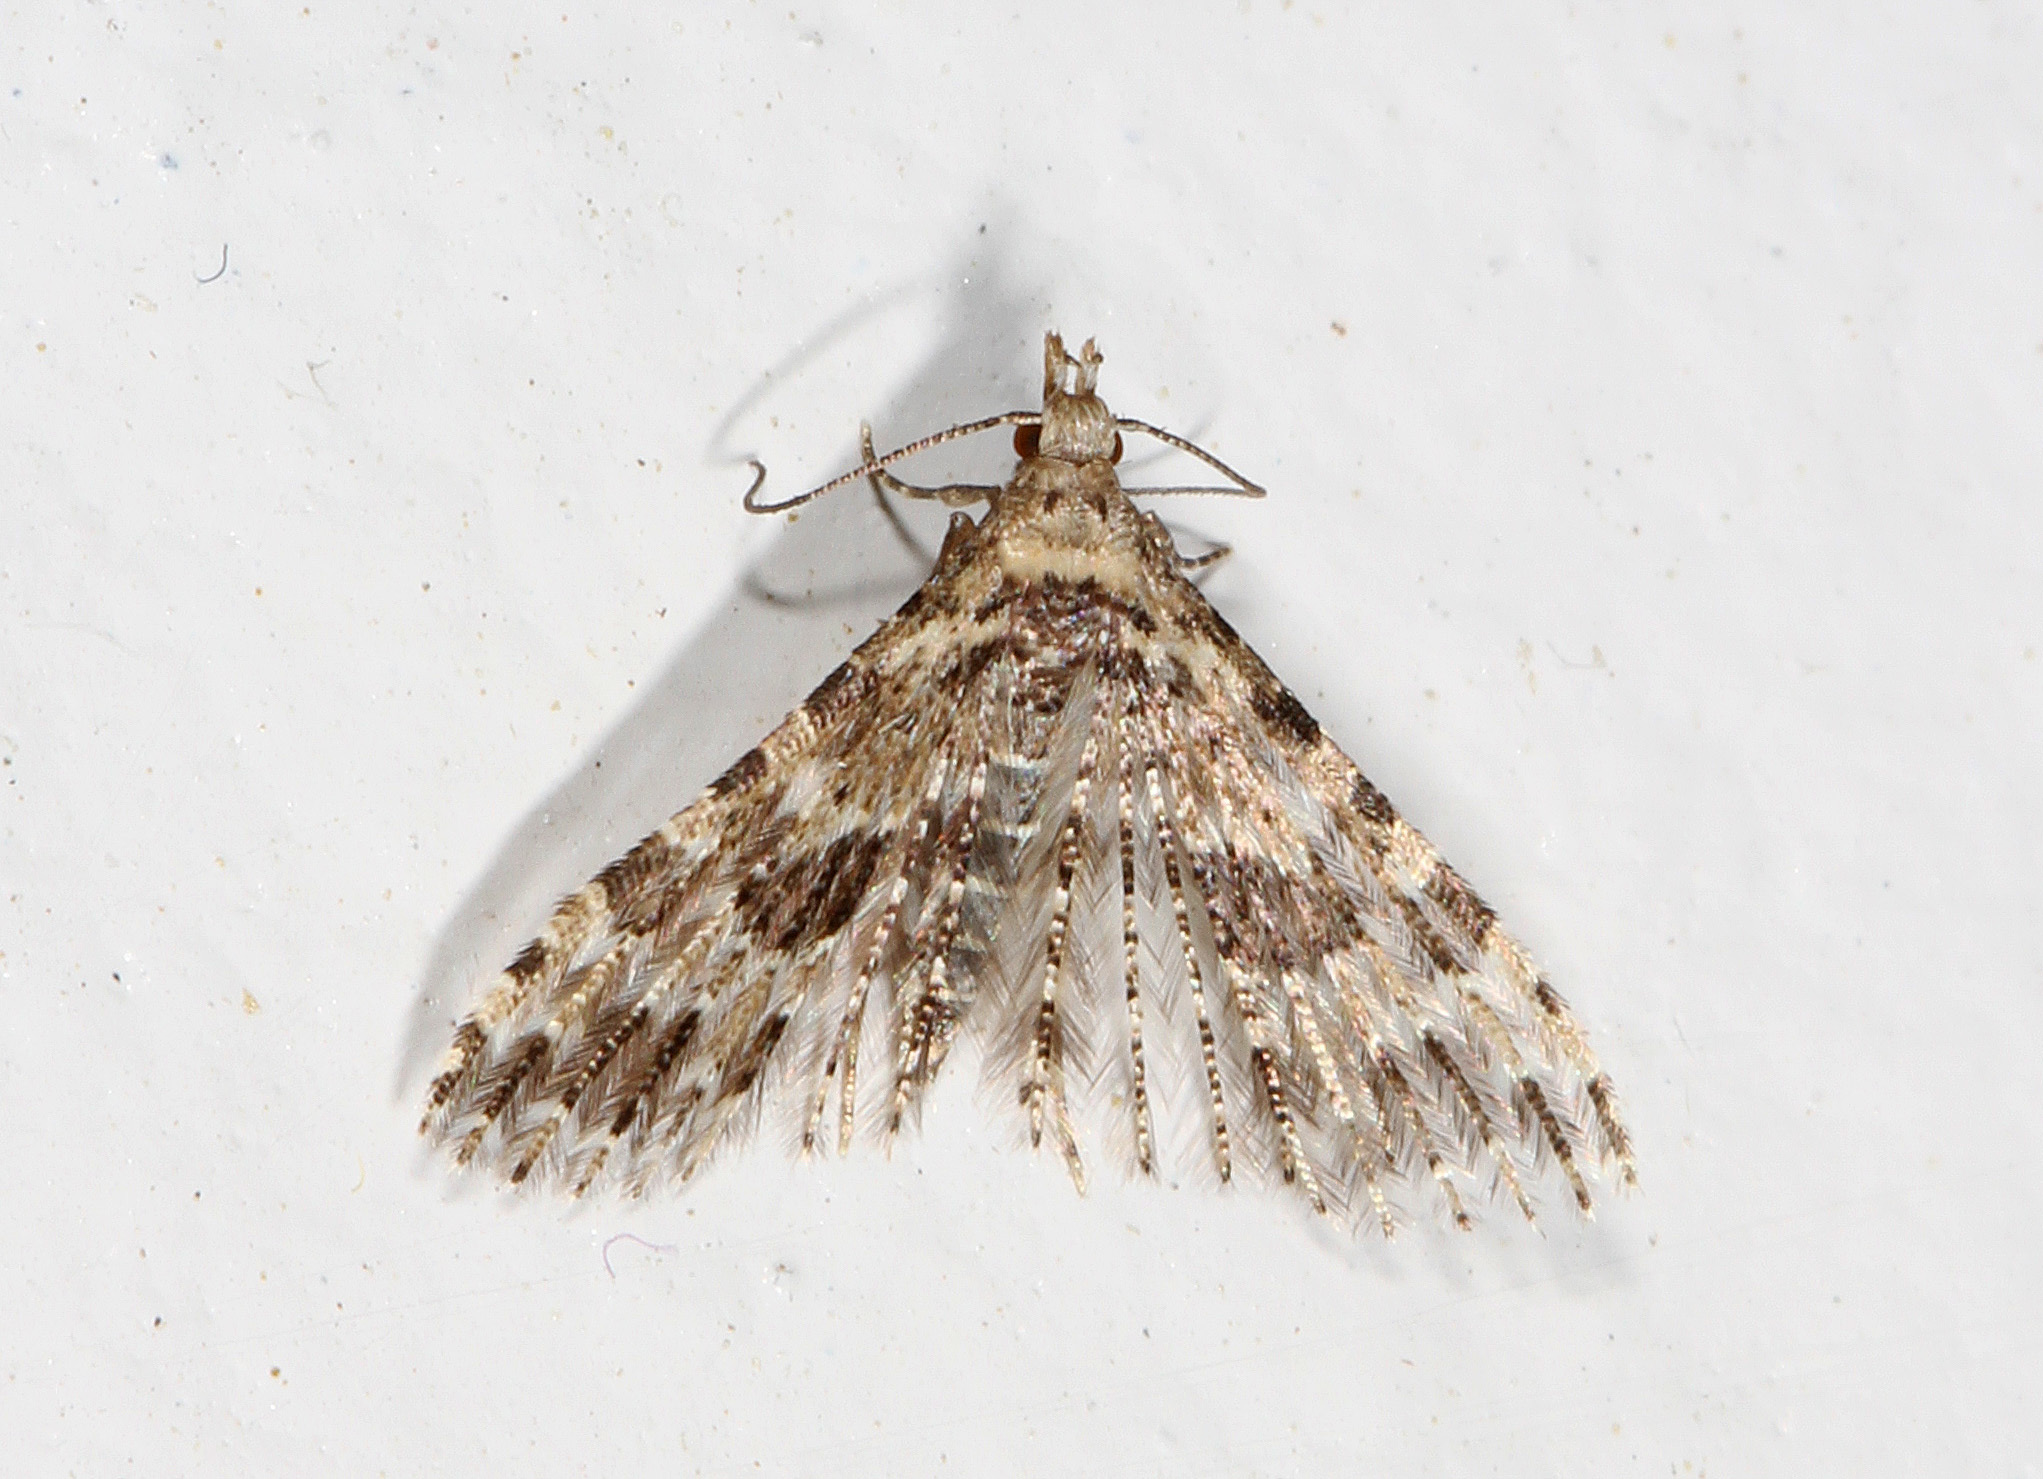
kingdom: Animalia
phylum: Arthropoda
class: Insecta
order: Lepidoptera
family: Alucitidae
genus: Alucita
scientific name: Alucita montana
